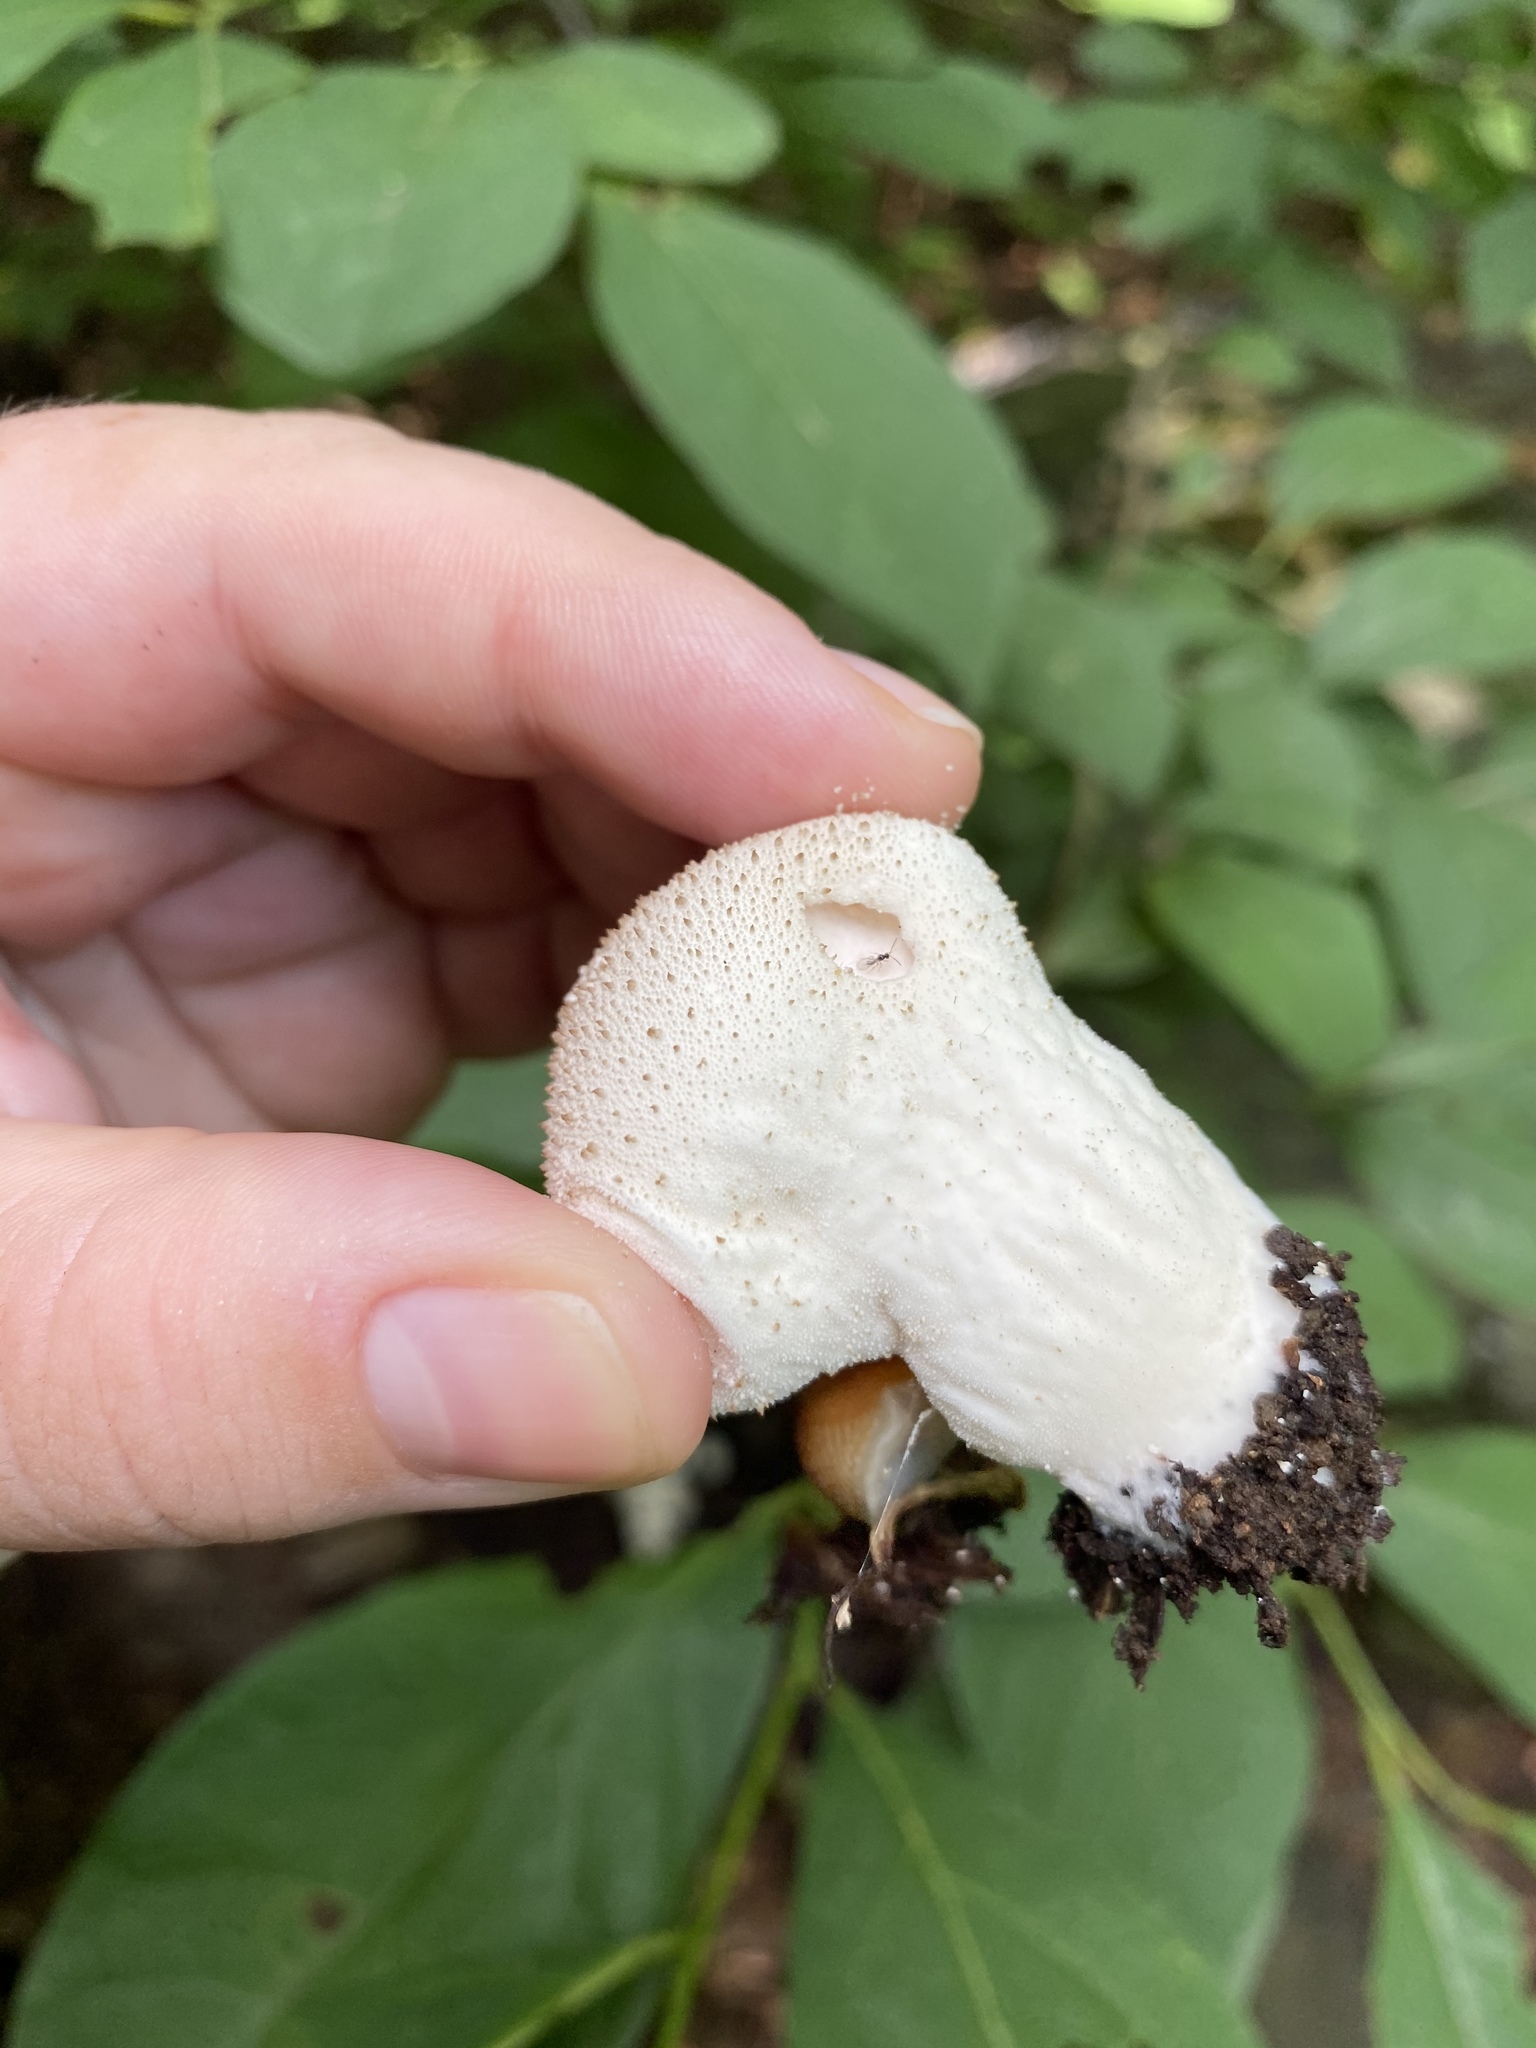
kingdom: Fungi
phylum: Basidiomycota
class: Agaricomycetes
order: Agaricales
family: Lycoperdaceae
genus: Lycoperdon
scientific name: Lycoperdon perlatum
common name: Common puffball
